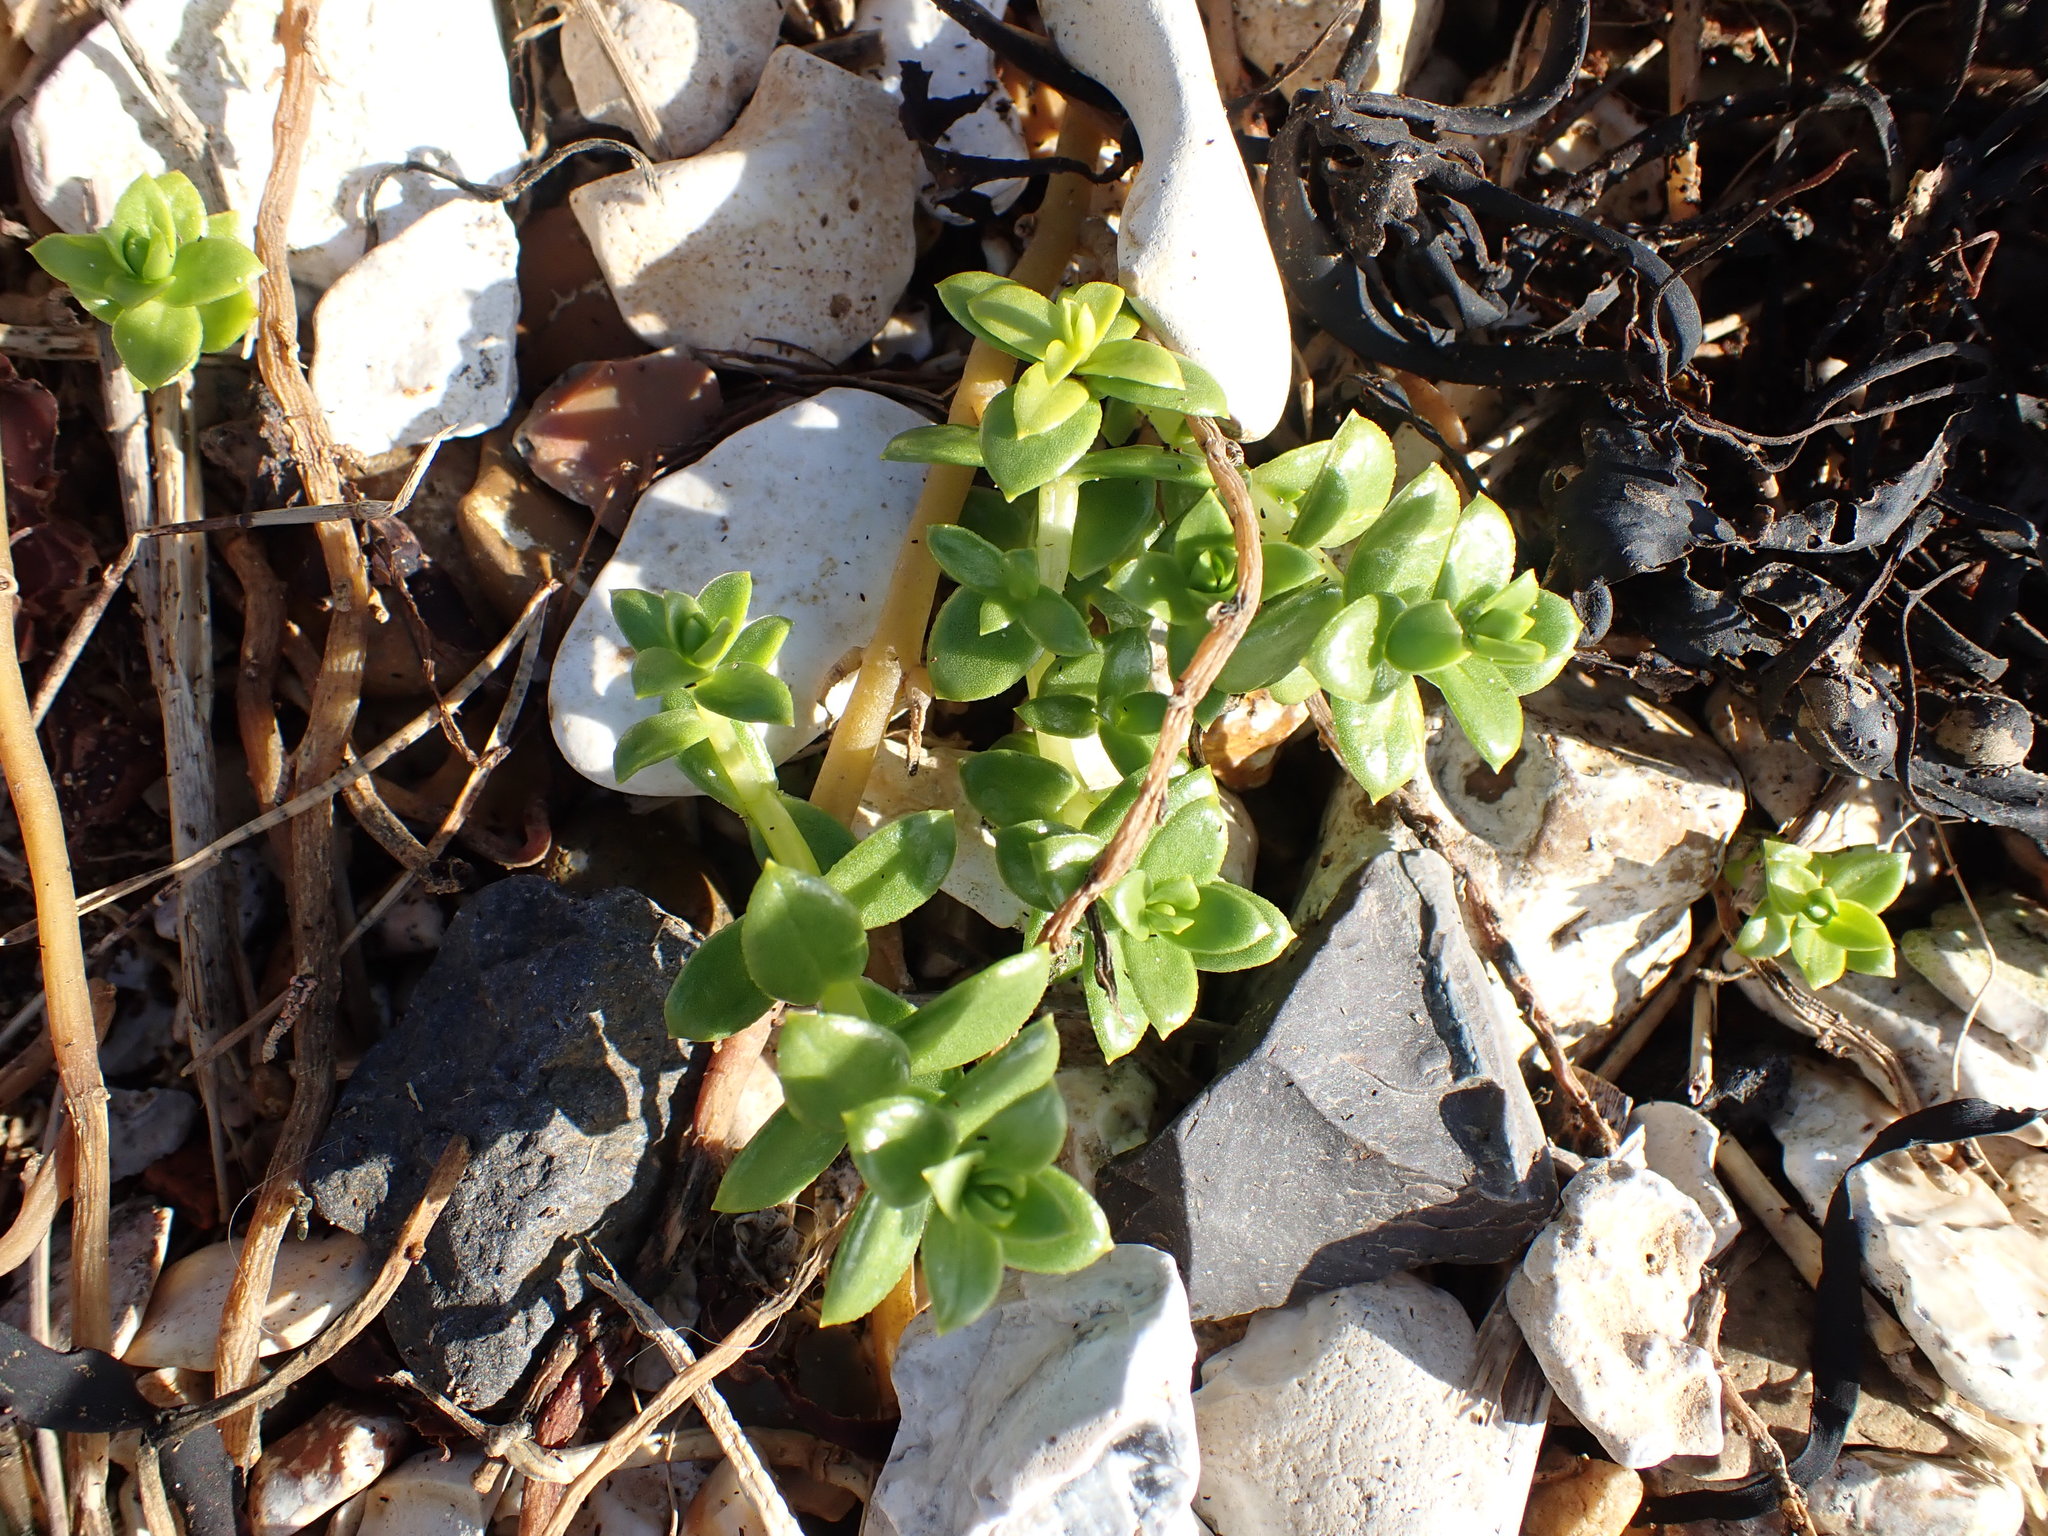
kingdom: Plantae
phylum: Tracheophyta
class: Magnoliopsida
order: Caryophyllales
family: Caryophyllaceae
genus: Honckenya
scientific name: Honckenya peploides
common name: Sea sandwort
